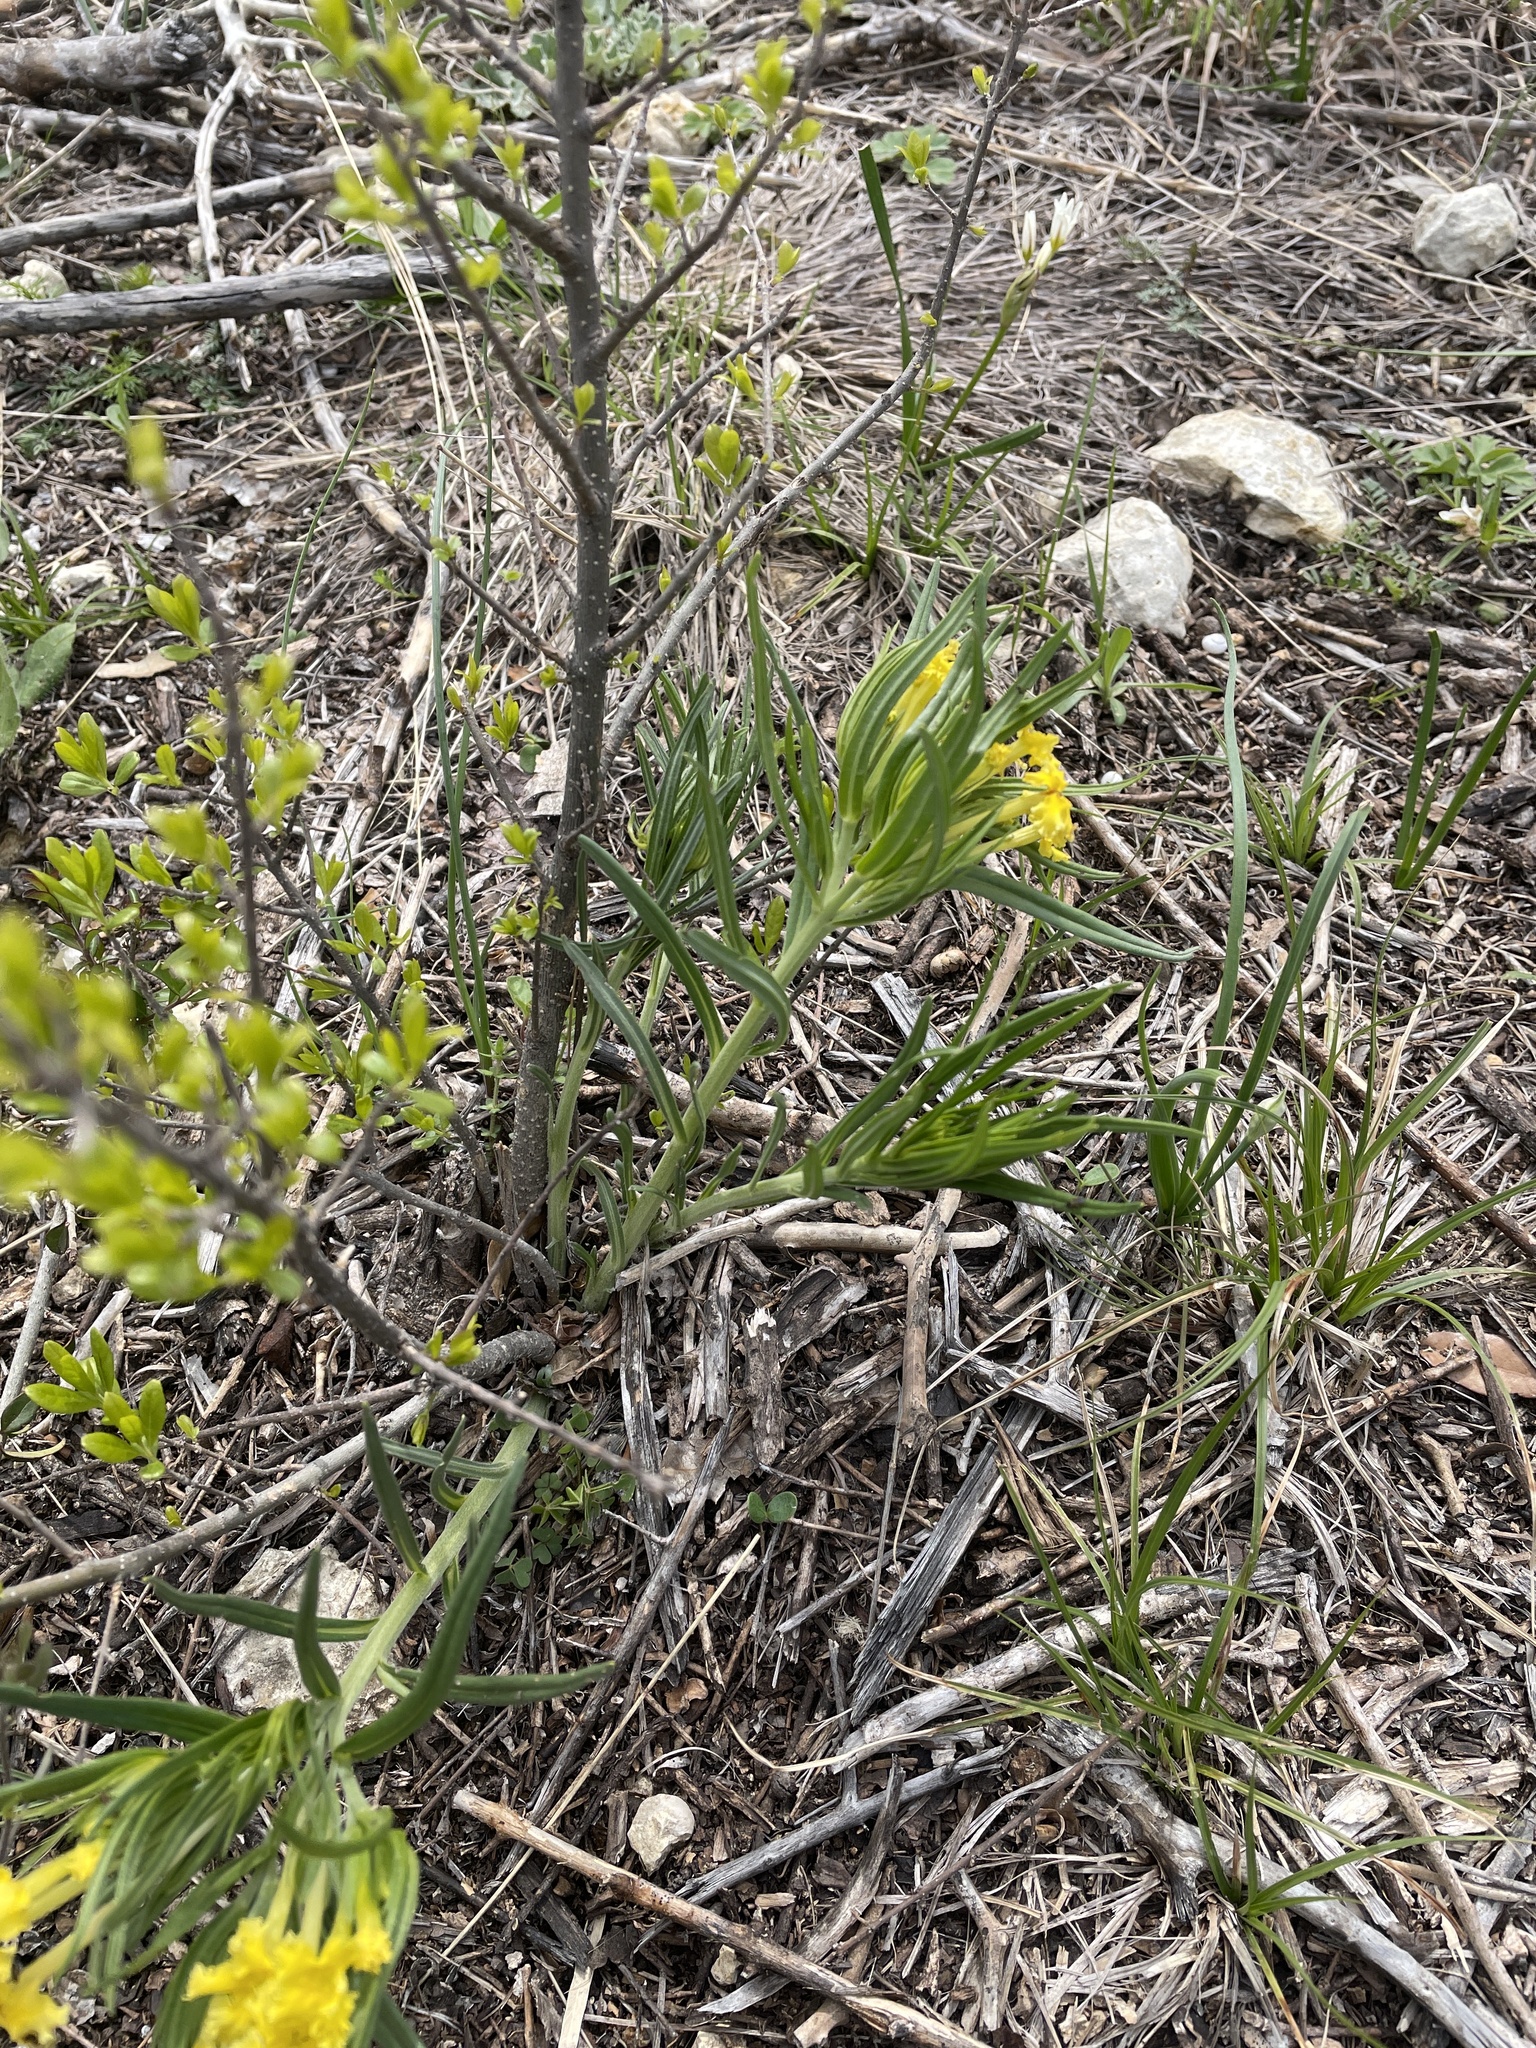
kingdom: Plantae
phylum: Tracheophyta
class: Magnoliopsida
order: Boraginales
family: Boraginaceae
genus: Lithospermum
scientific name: Lithospermum incisum
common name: Fringed gromwell
